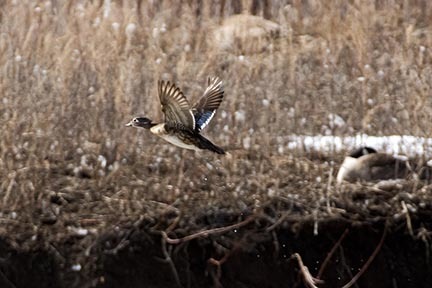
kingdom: Animalia
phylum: Chordata
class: Aves
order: Anseriformes
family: Anatidae
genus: Aix
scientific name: Aix sponsa
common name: Wood duck
